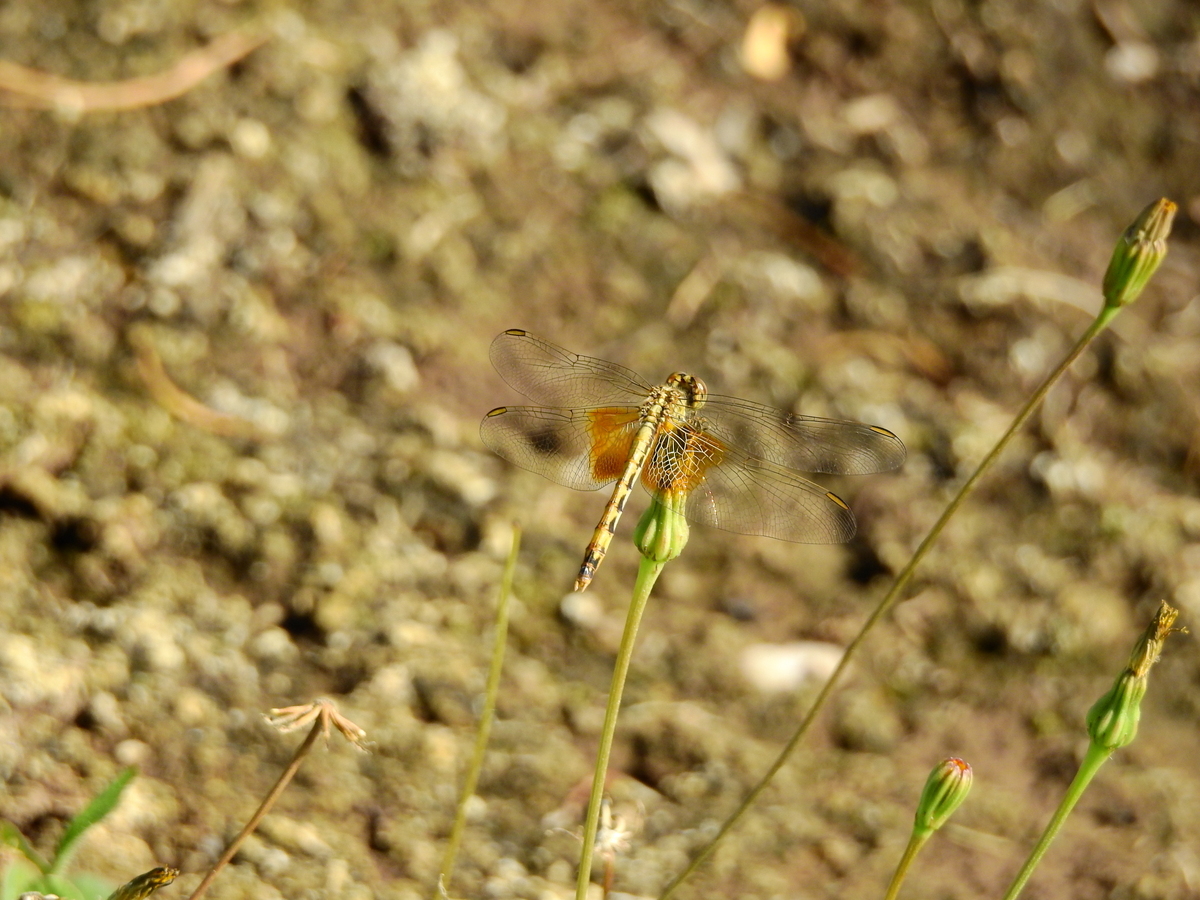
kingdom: Animalia
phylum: Arthropoda
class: Insecta
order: Odonata
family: Libellulidae
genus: Erythrodiplax
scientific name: Erythrodiplax corallina
